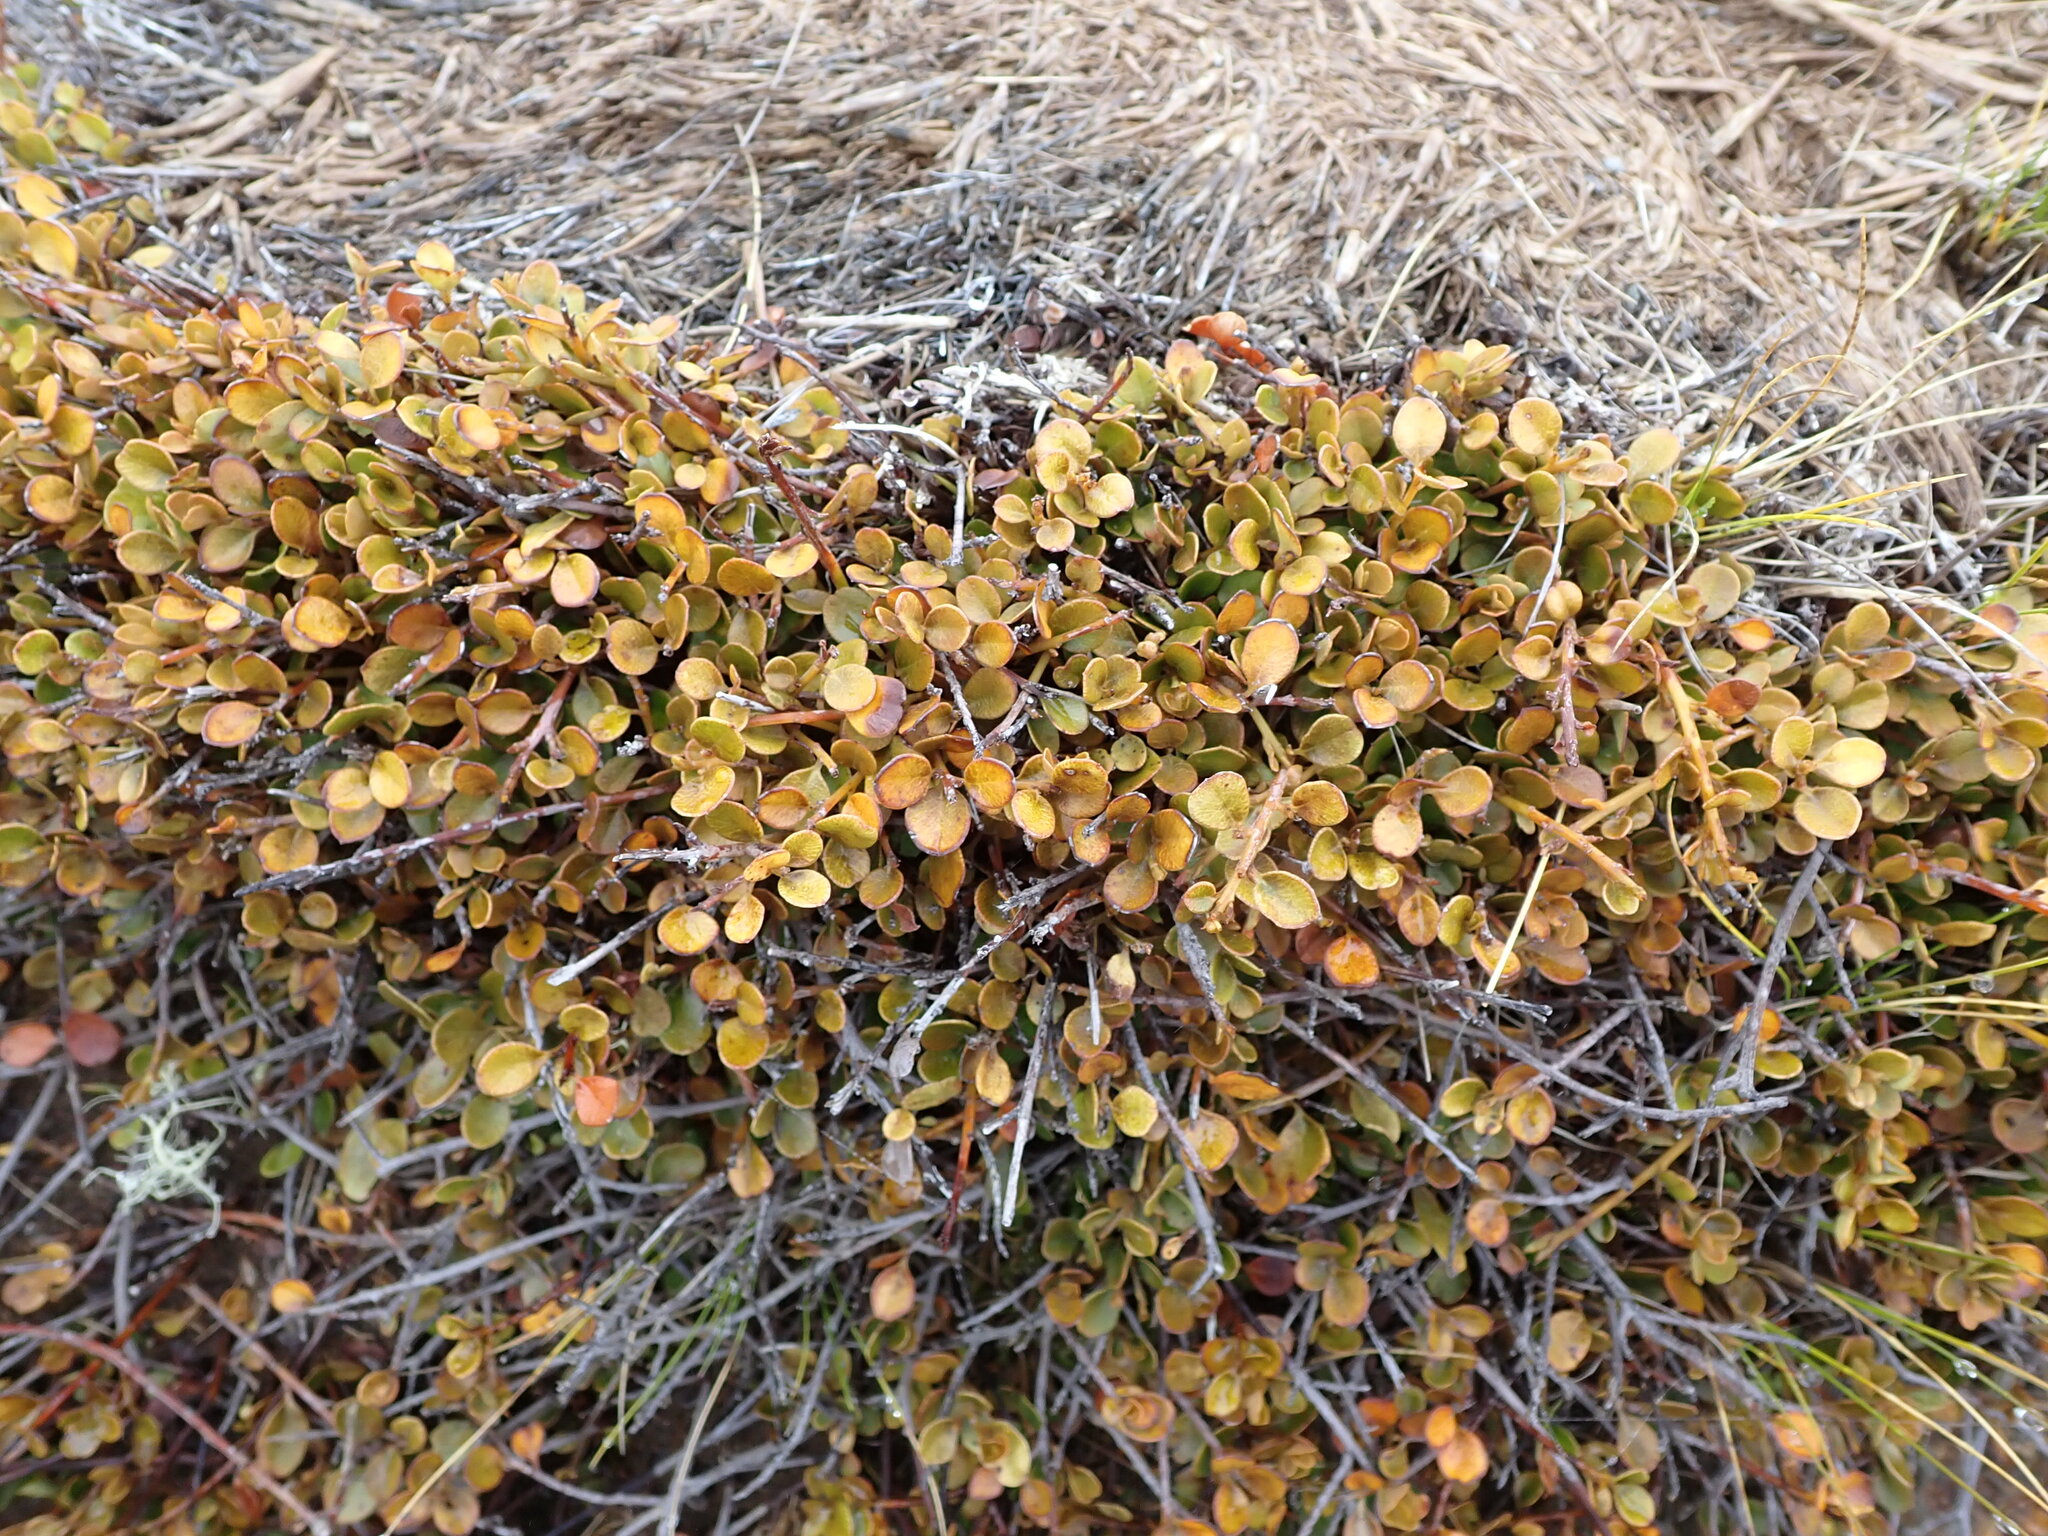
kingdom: Plantae
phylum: Tracheophyta
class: Magnoliopsida
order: Ericales
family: Primulaceae
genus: Myrsine
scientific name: Myrsine nummularia
